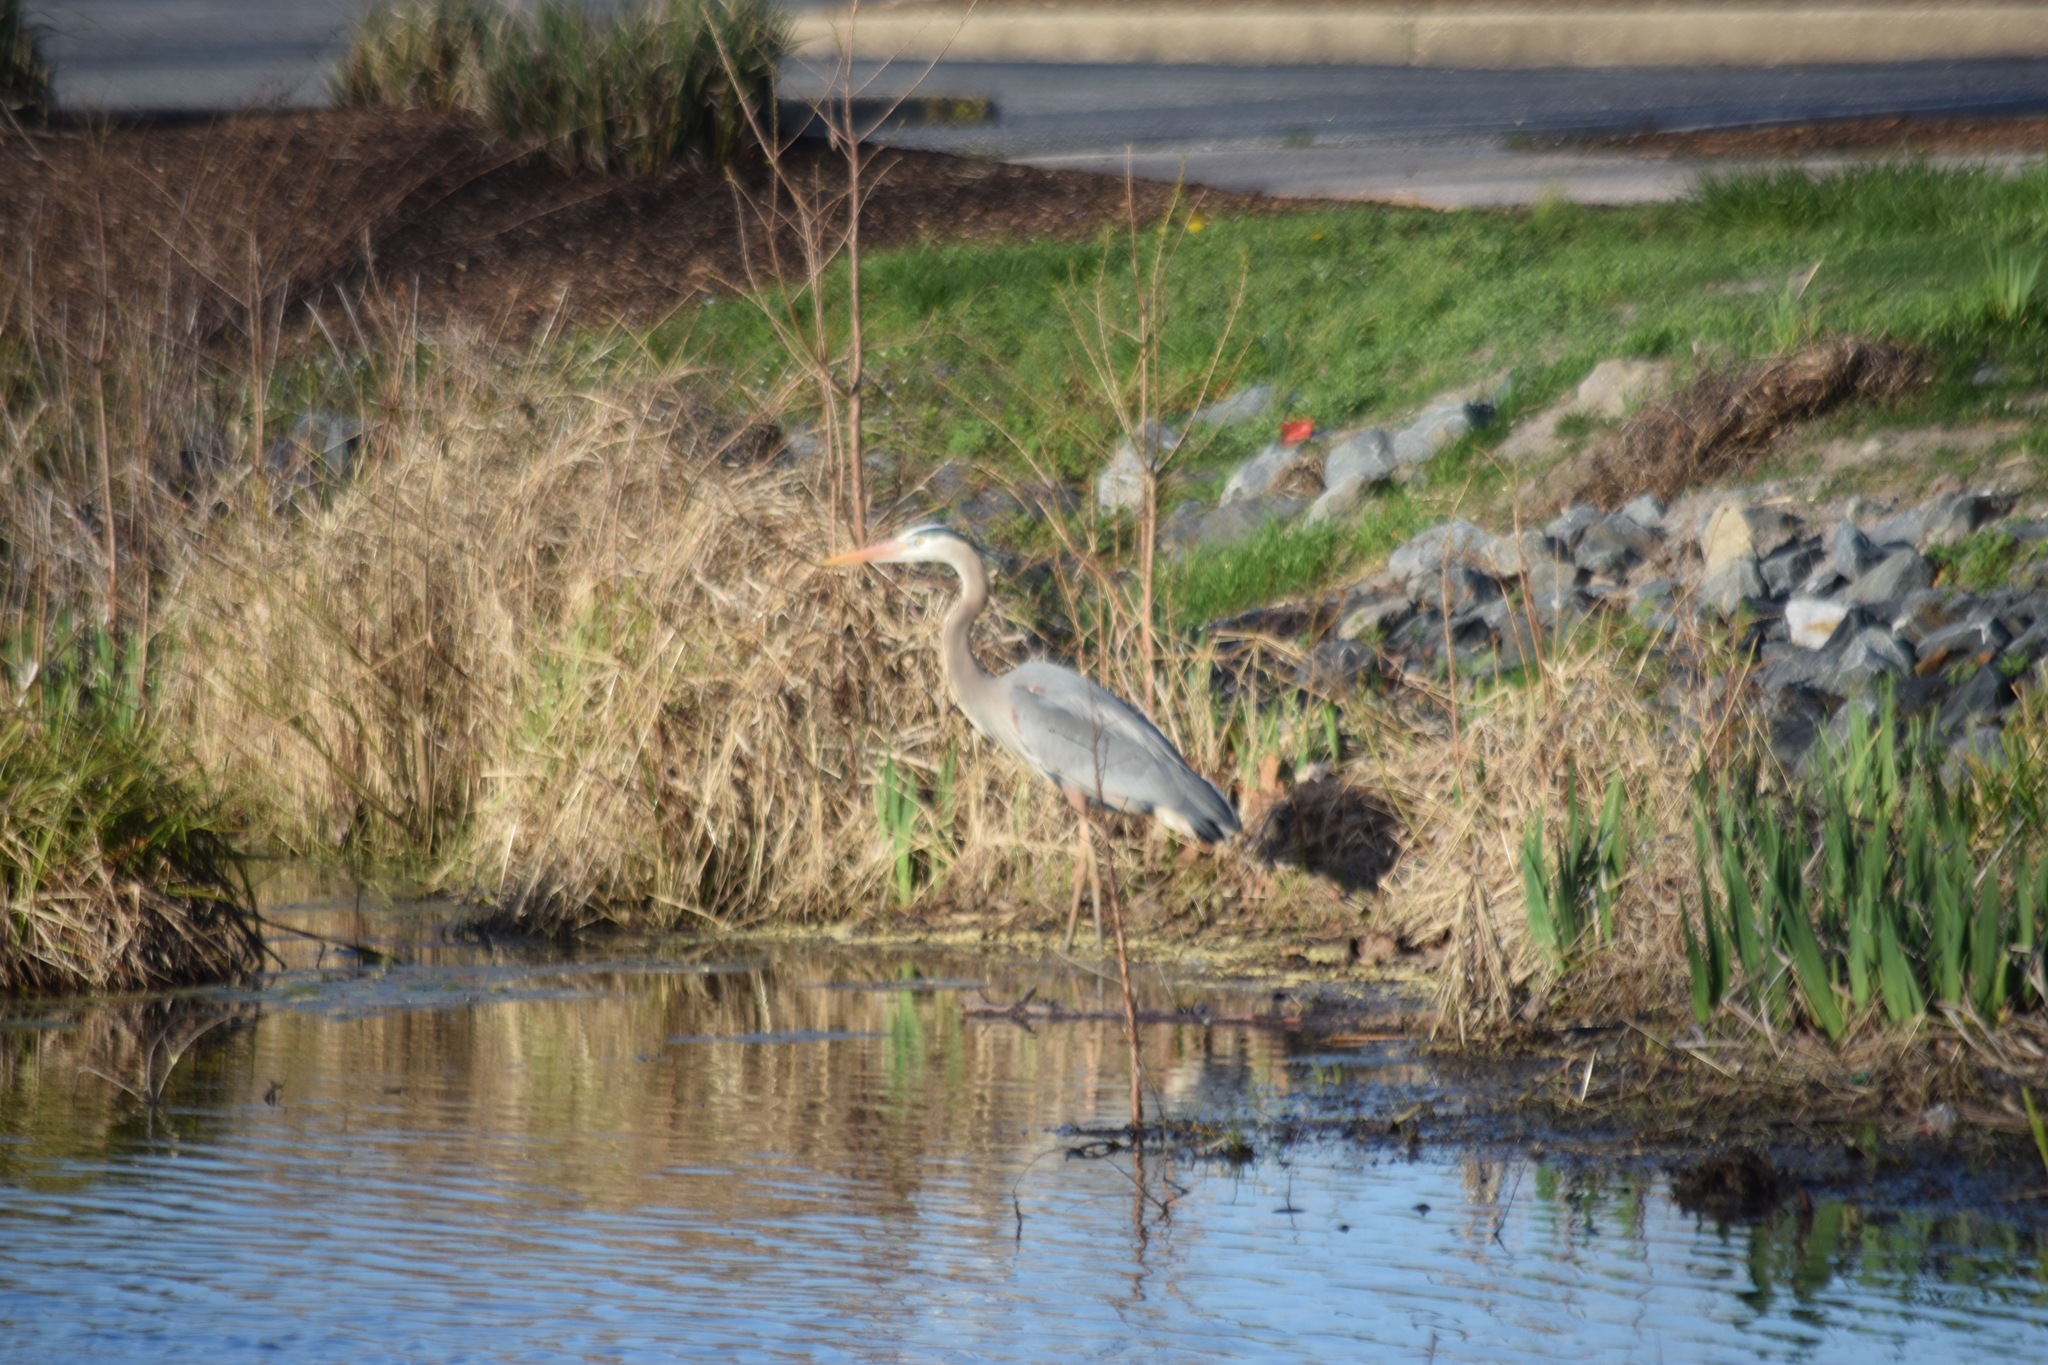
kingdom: Animalia
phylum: Chordata
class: Aves
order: Pelecaniformes
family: Ardeidae
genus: Ardea
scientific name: Ardea herodias
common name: Great blue heron
